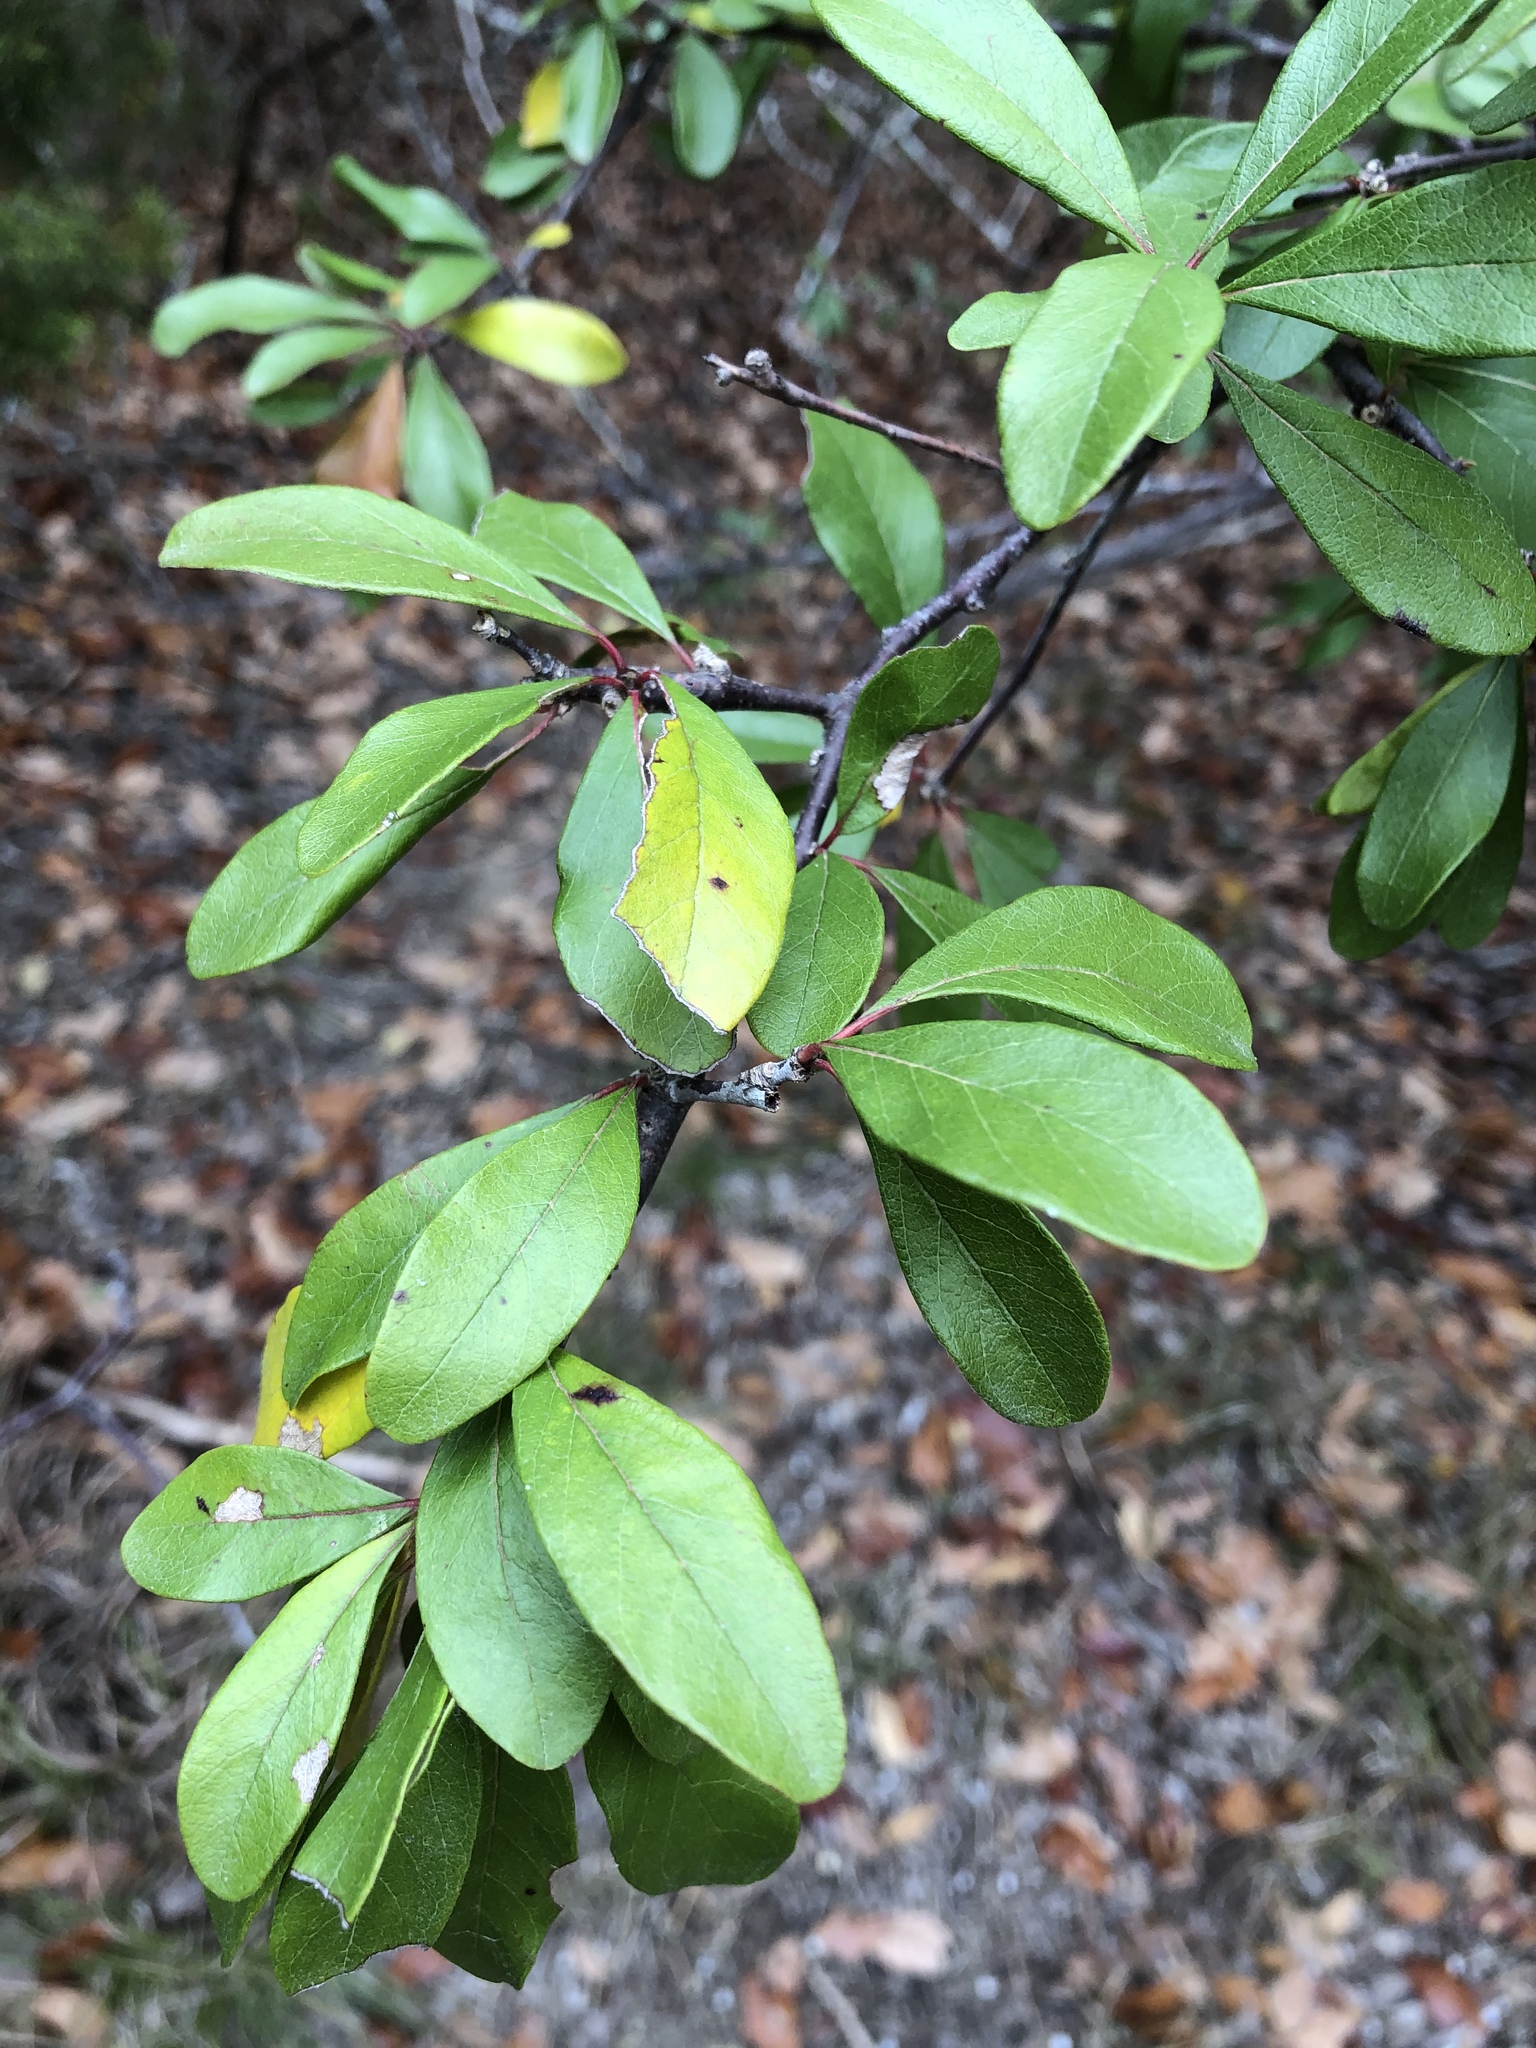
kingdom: Plantae
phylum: Tracheophyta
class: Magnoliopsida
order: Ericales
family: Sapotaceae
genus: Sideroxylon
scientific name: Sideroxylon lanuginosum
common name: Chittamwood
